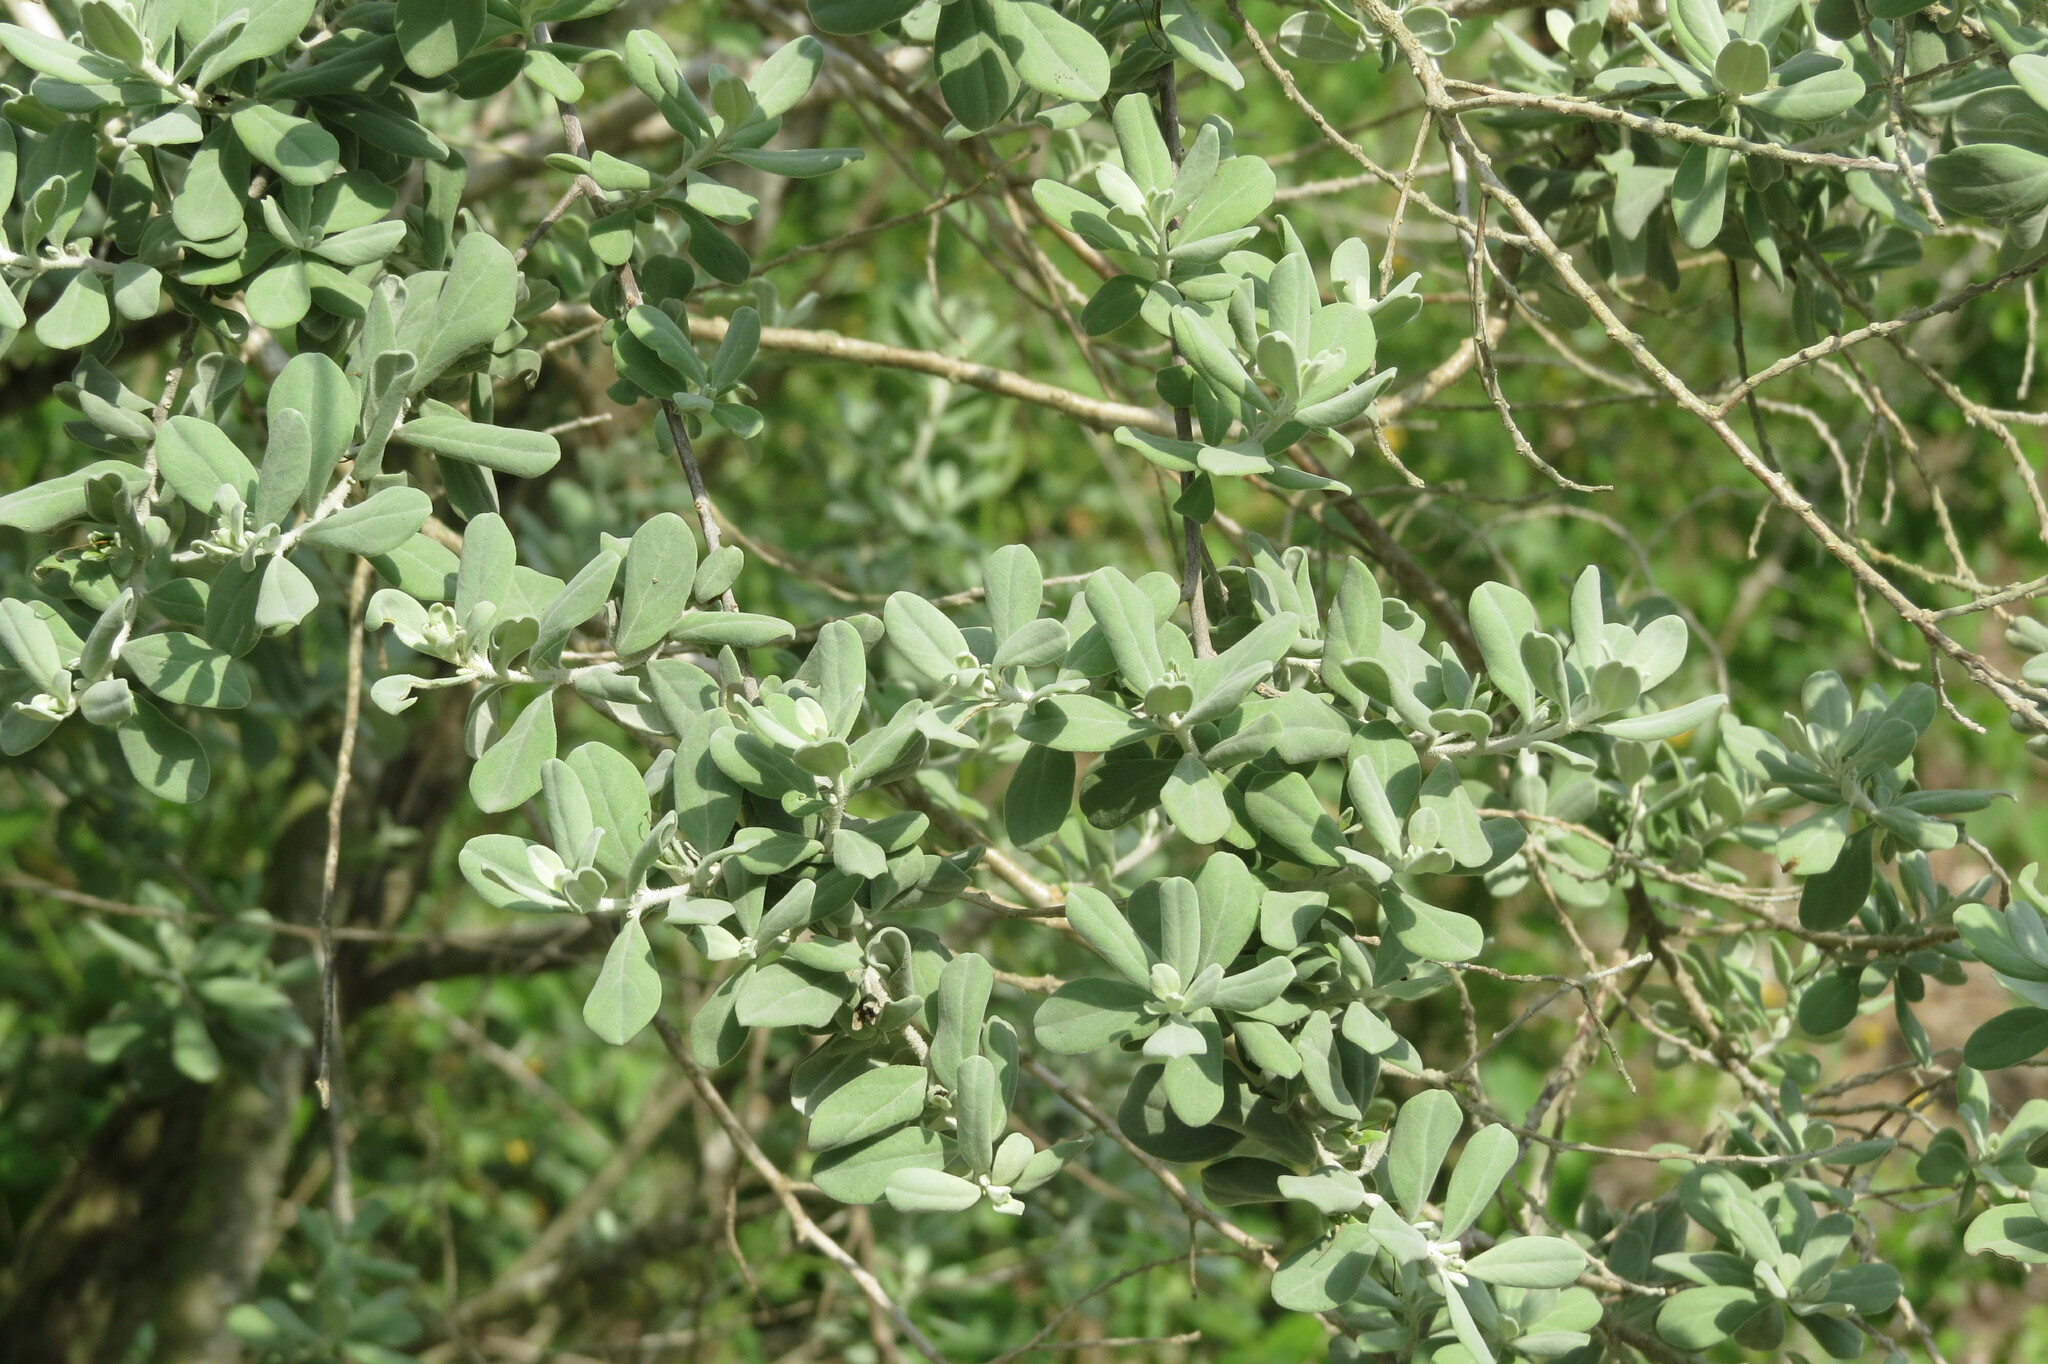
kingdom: Plantae
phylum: Tracheophyta
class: Magnoliopsida
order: Lamiales
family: Scrophulariaceae
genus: Leucophyllum
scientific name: Leucophyllum frutescens
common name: Texas silverleaf
